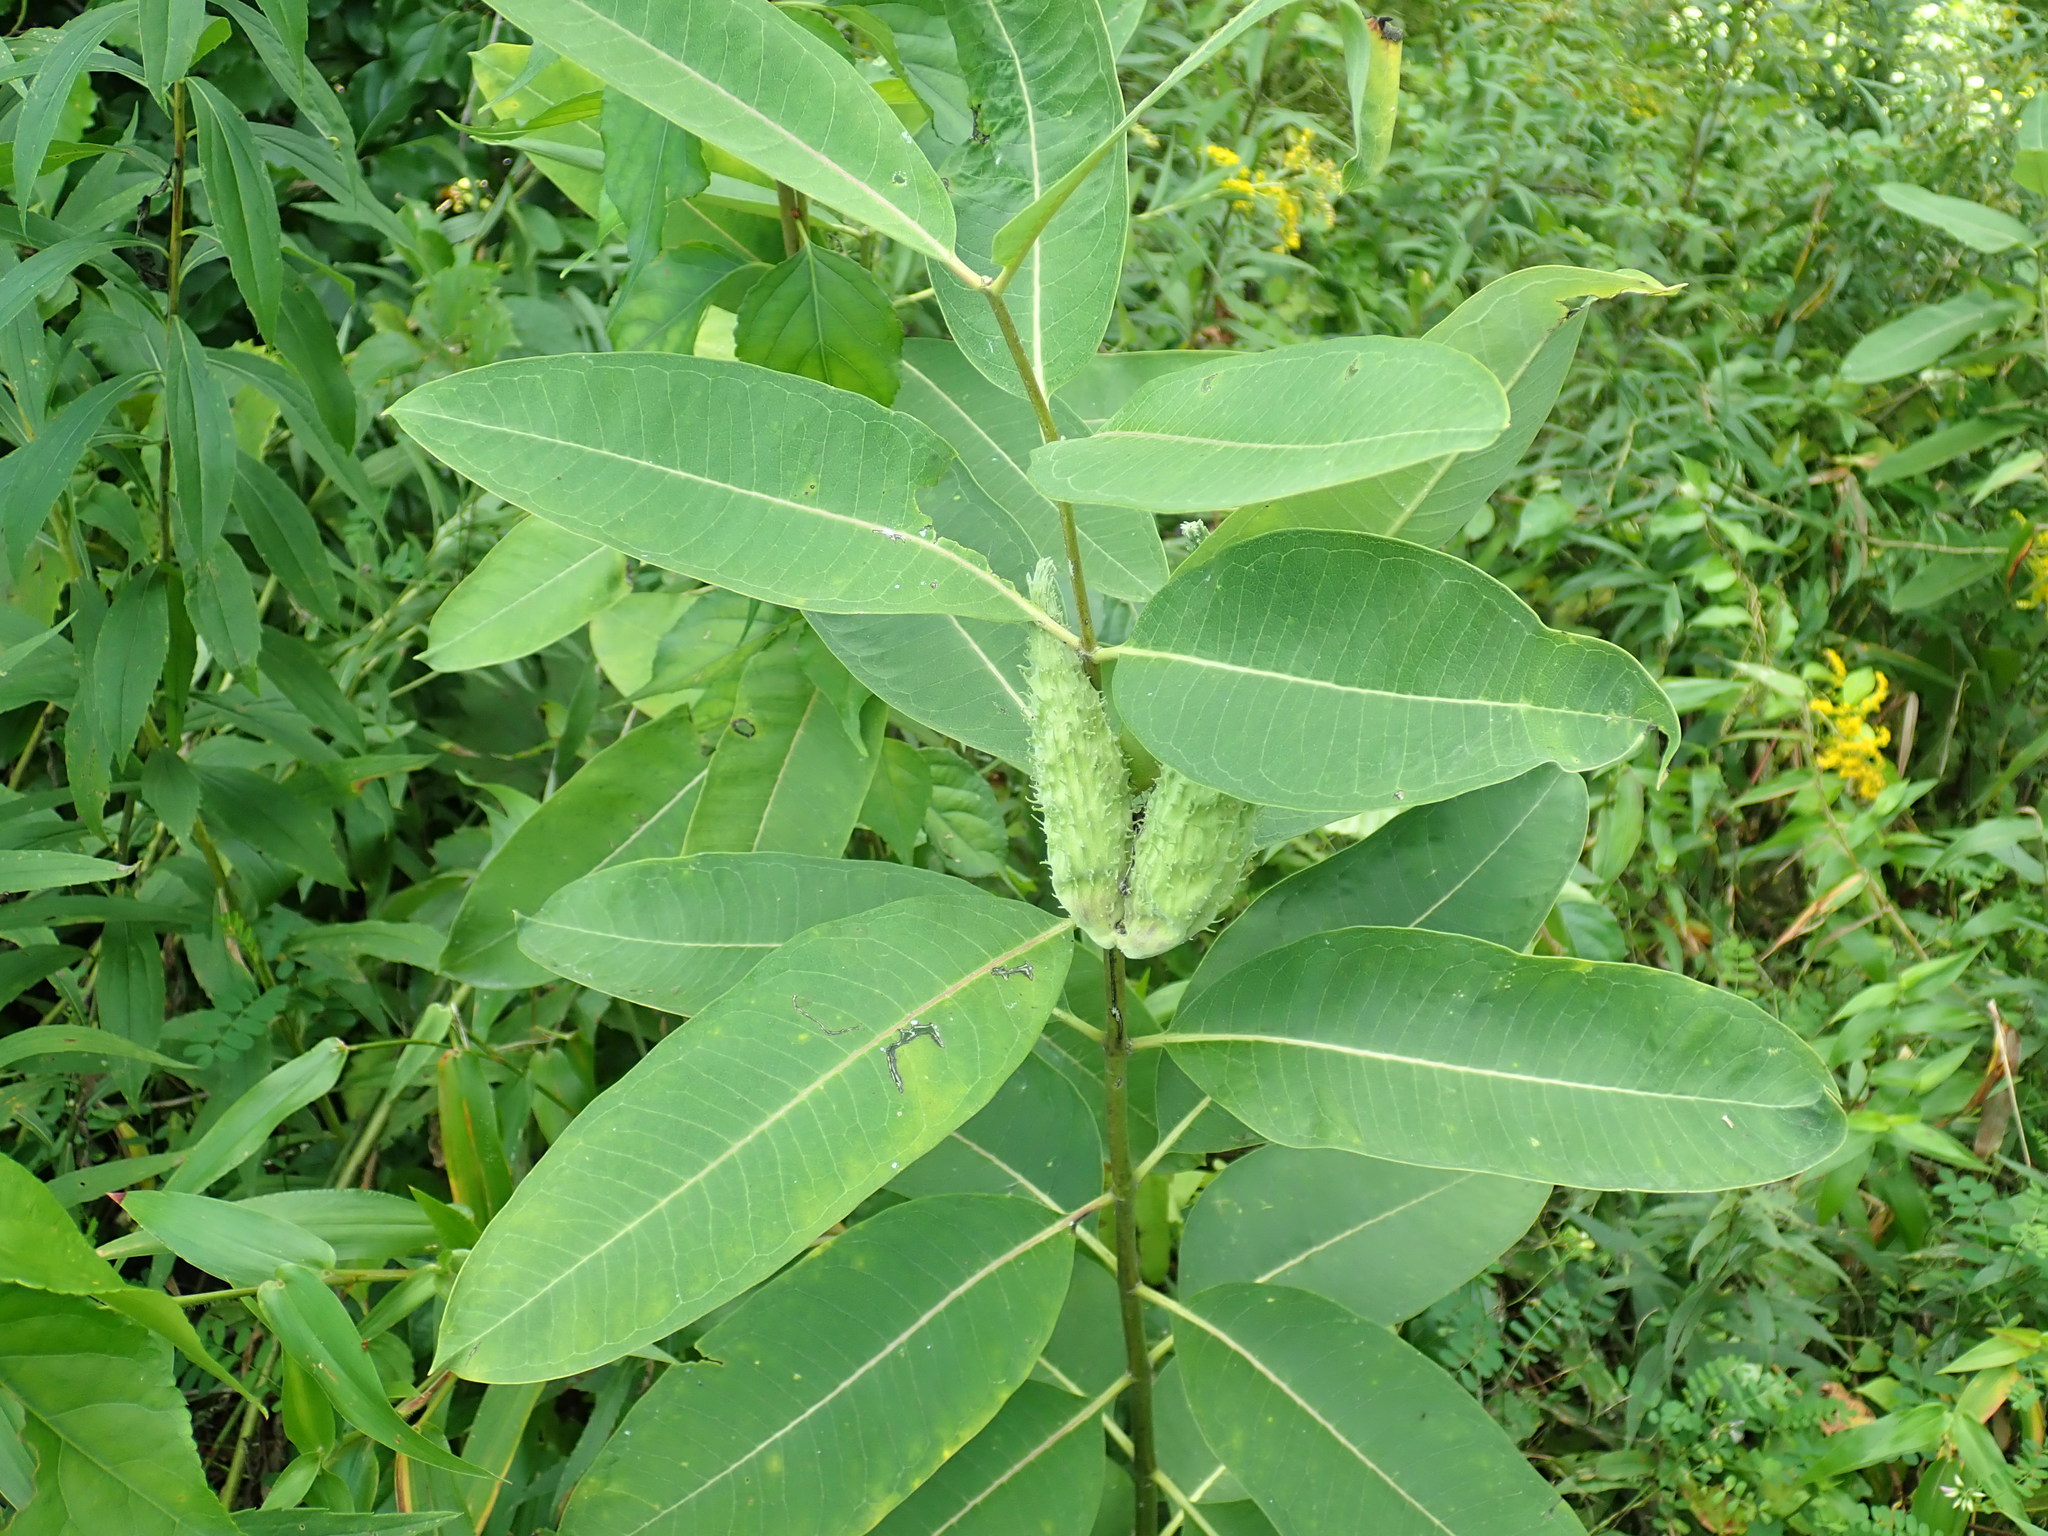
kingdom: Plantae
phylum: Tracheophyta
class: Magnoliopsida
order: Gentianales
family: Apocynaceae
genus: Asclepias
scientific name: Asclepias syriaca
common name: Common milkweed
